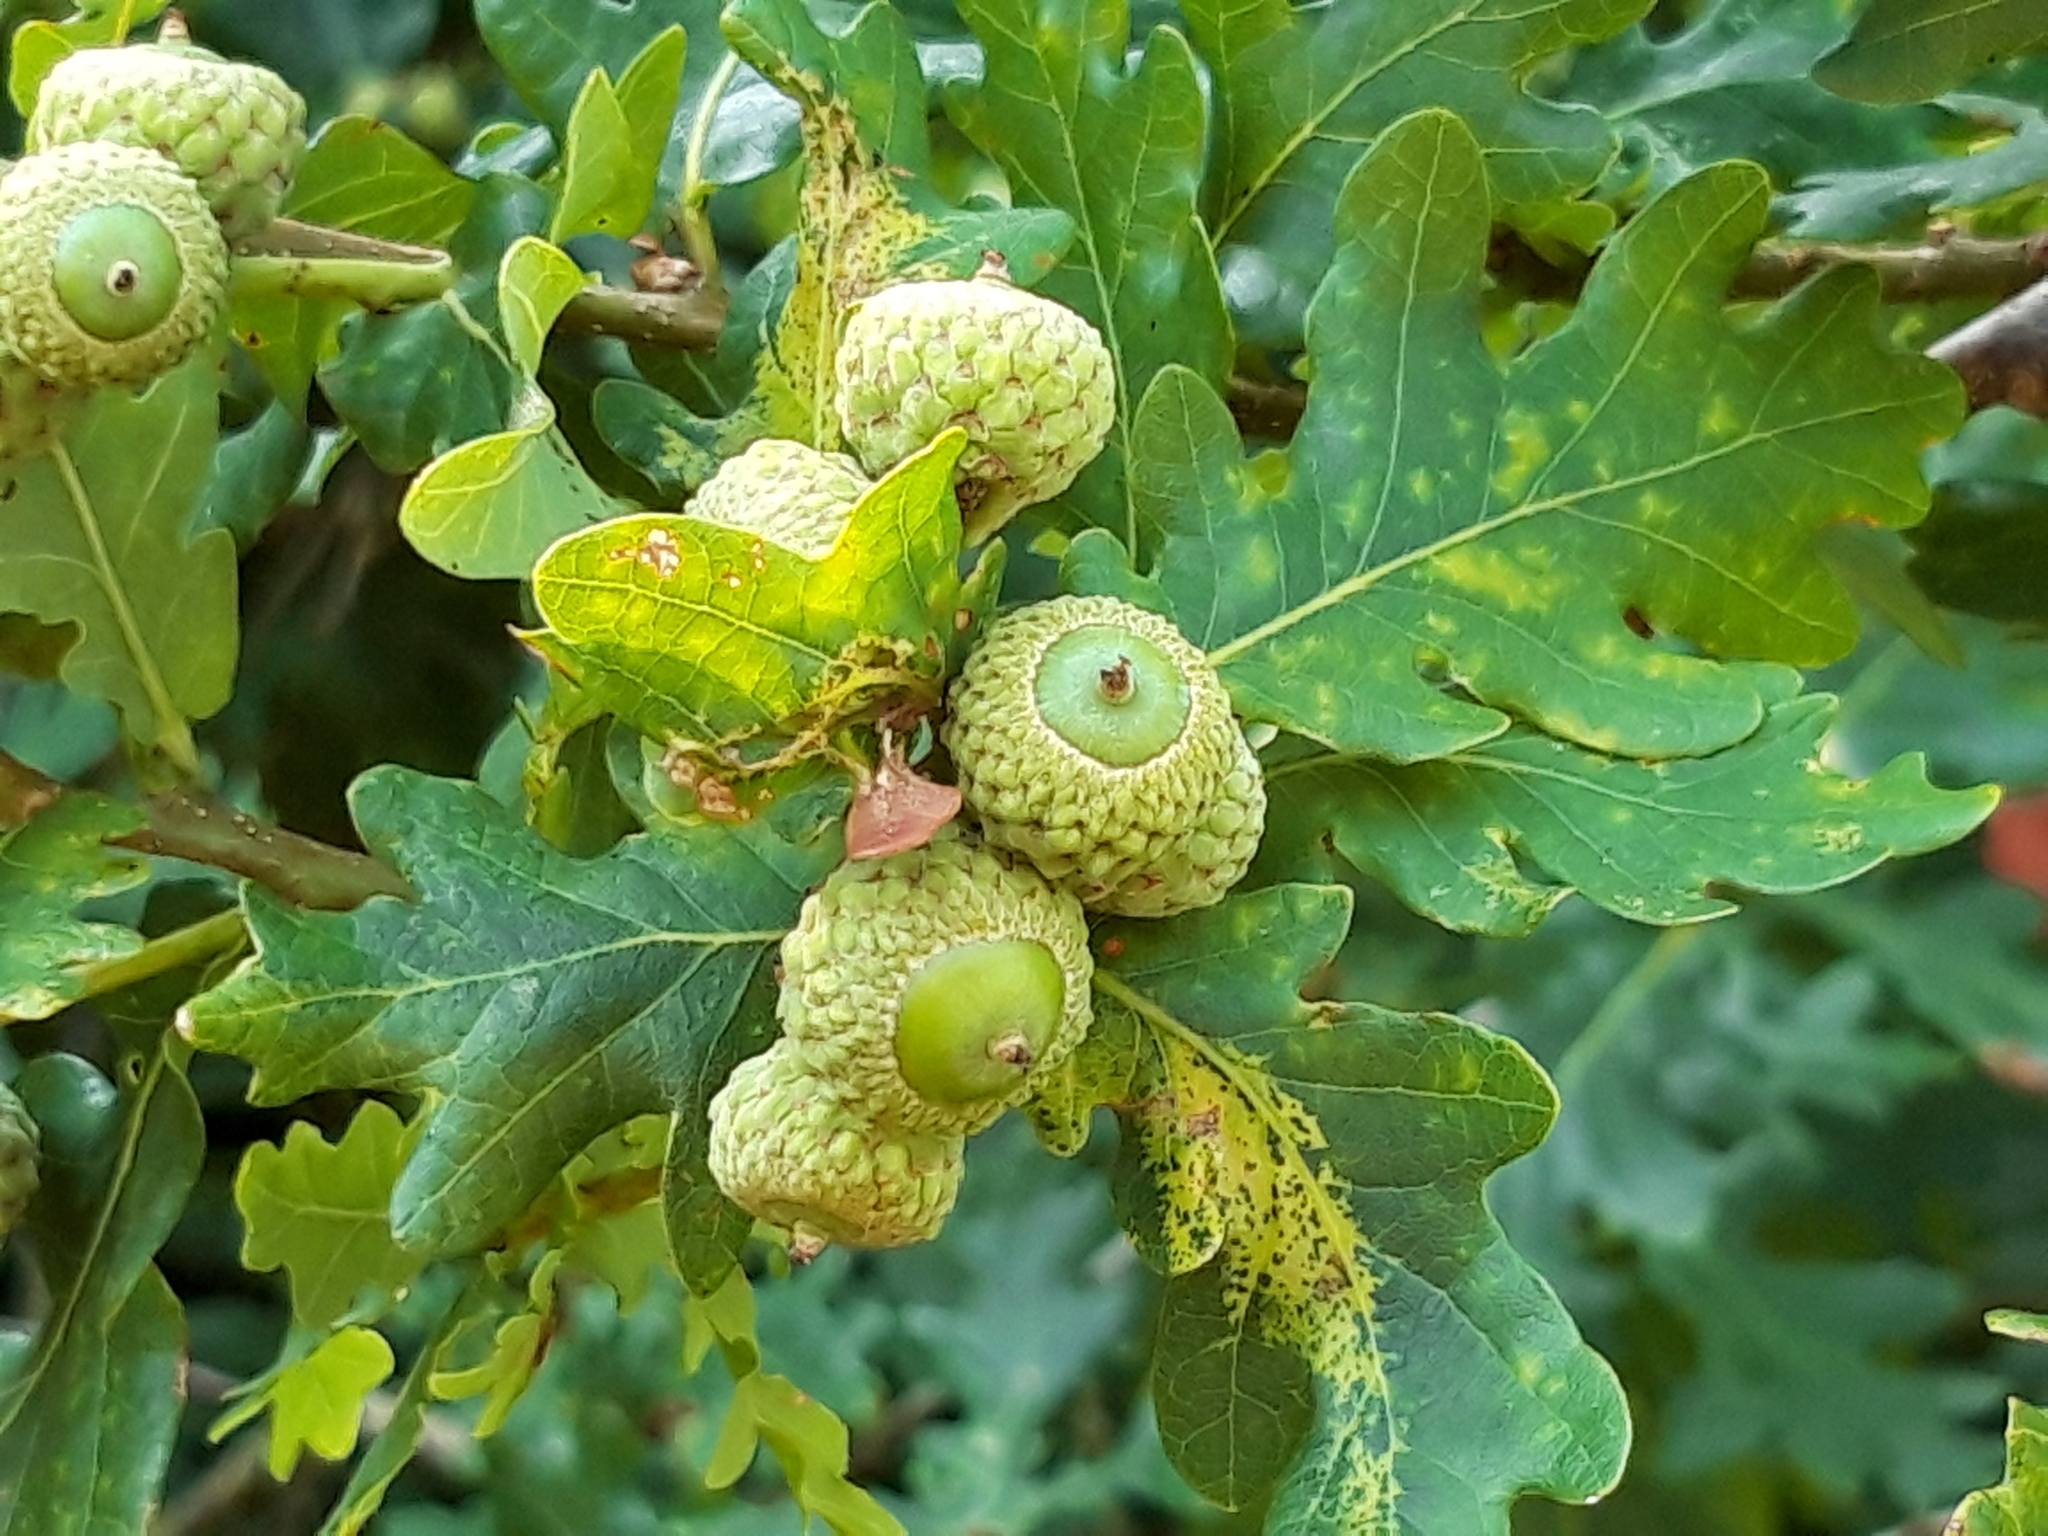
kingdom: Plantae
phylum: Tracheophyta
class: Magnoliopsida
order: Fagales
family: Fagaceae
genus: Quercus
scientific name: Quercus robur
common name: Pedunculate oak
